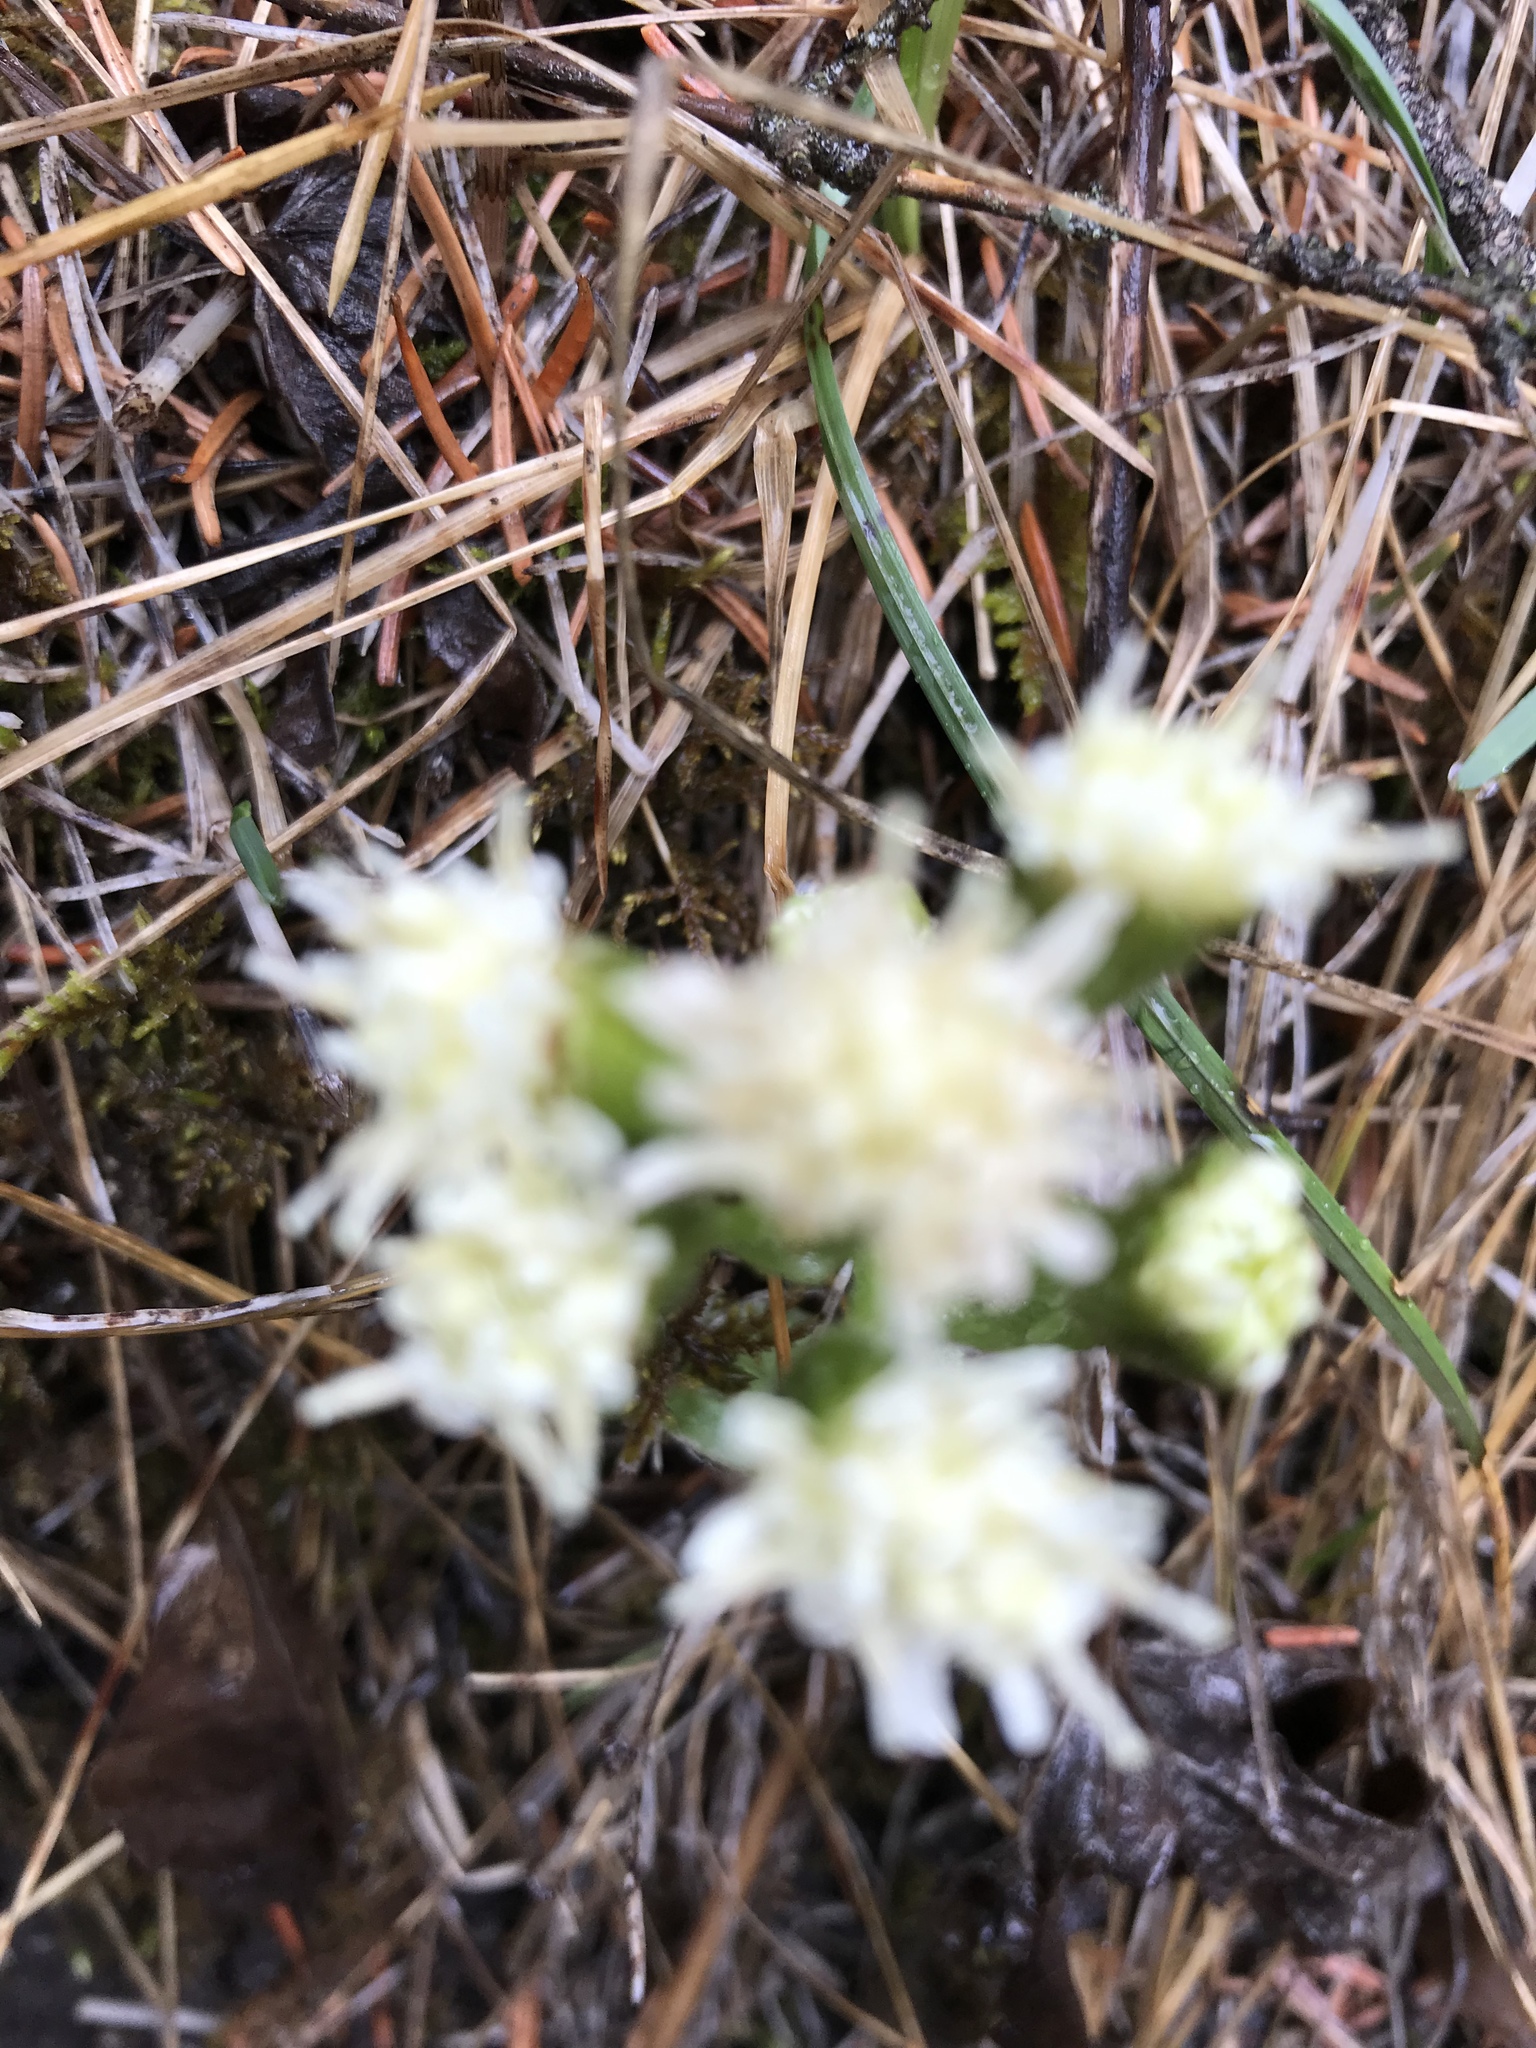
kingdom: Plantae
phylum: Tracheophyta
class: Magnoliopsida
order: Asterales
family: Asteraceae
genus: Petasites
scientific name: Petasites frigidus
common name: Arctic butterbur
